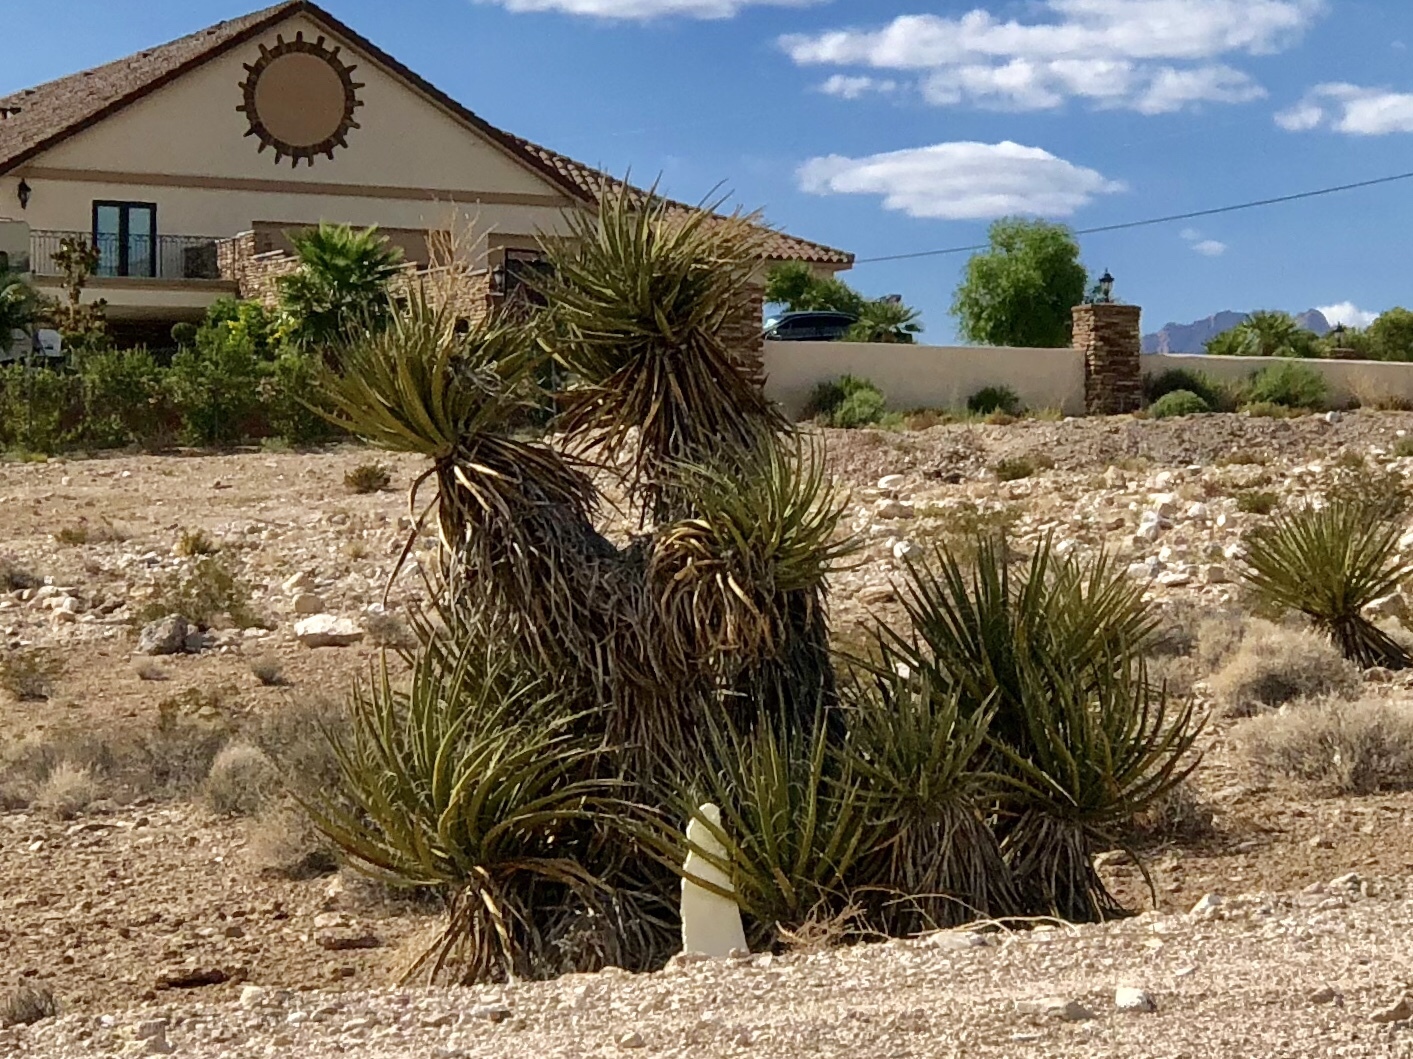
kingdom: Plantae
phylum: Tracheophyta
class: Liliopsida
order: Asparagales
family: Asparagaceae
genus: Yucca
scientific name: Yucca schidigera
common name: Mojave yucca
